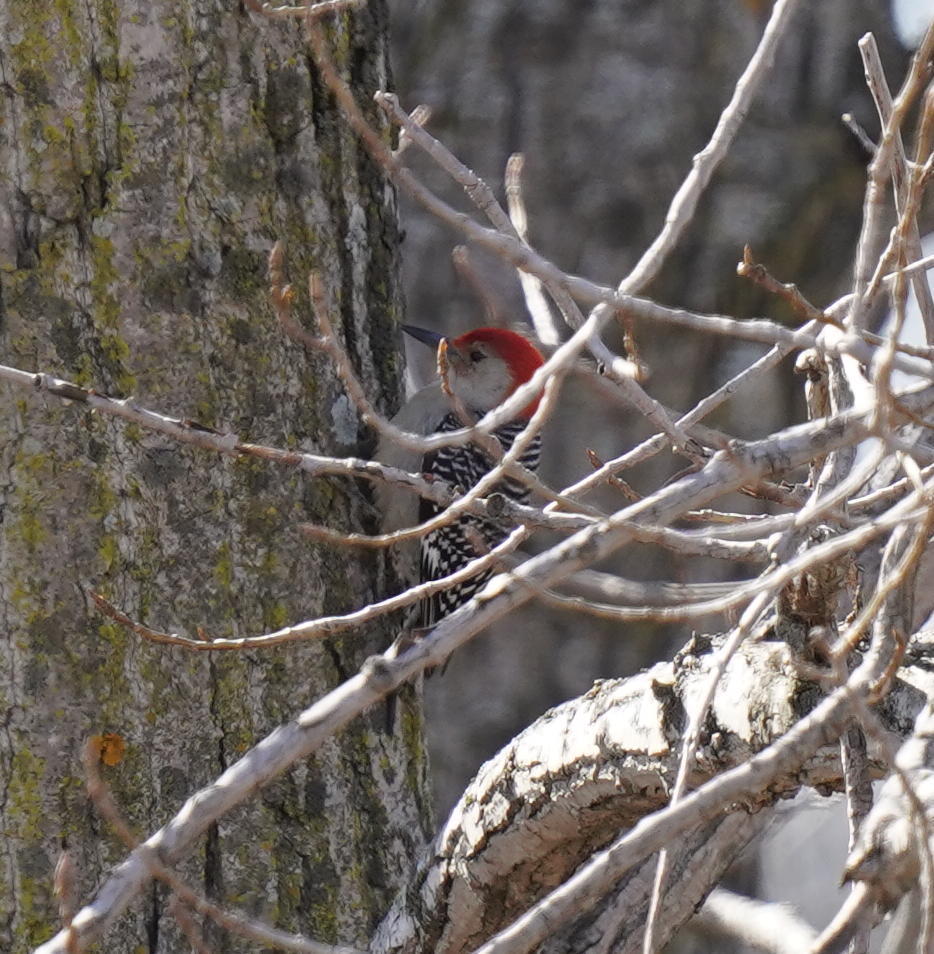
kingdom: Animalia
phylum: Chordata
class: Aves
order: Piciformes
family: Picidae
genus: Melanerpes
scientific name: Melanerpes carolinus
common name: Red-bellied woodpecker
